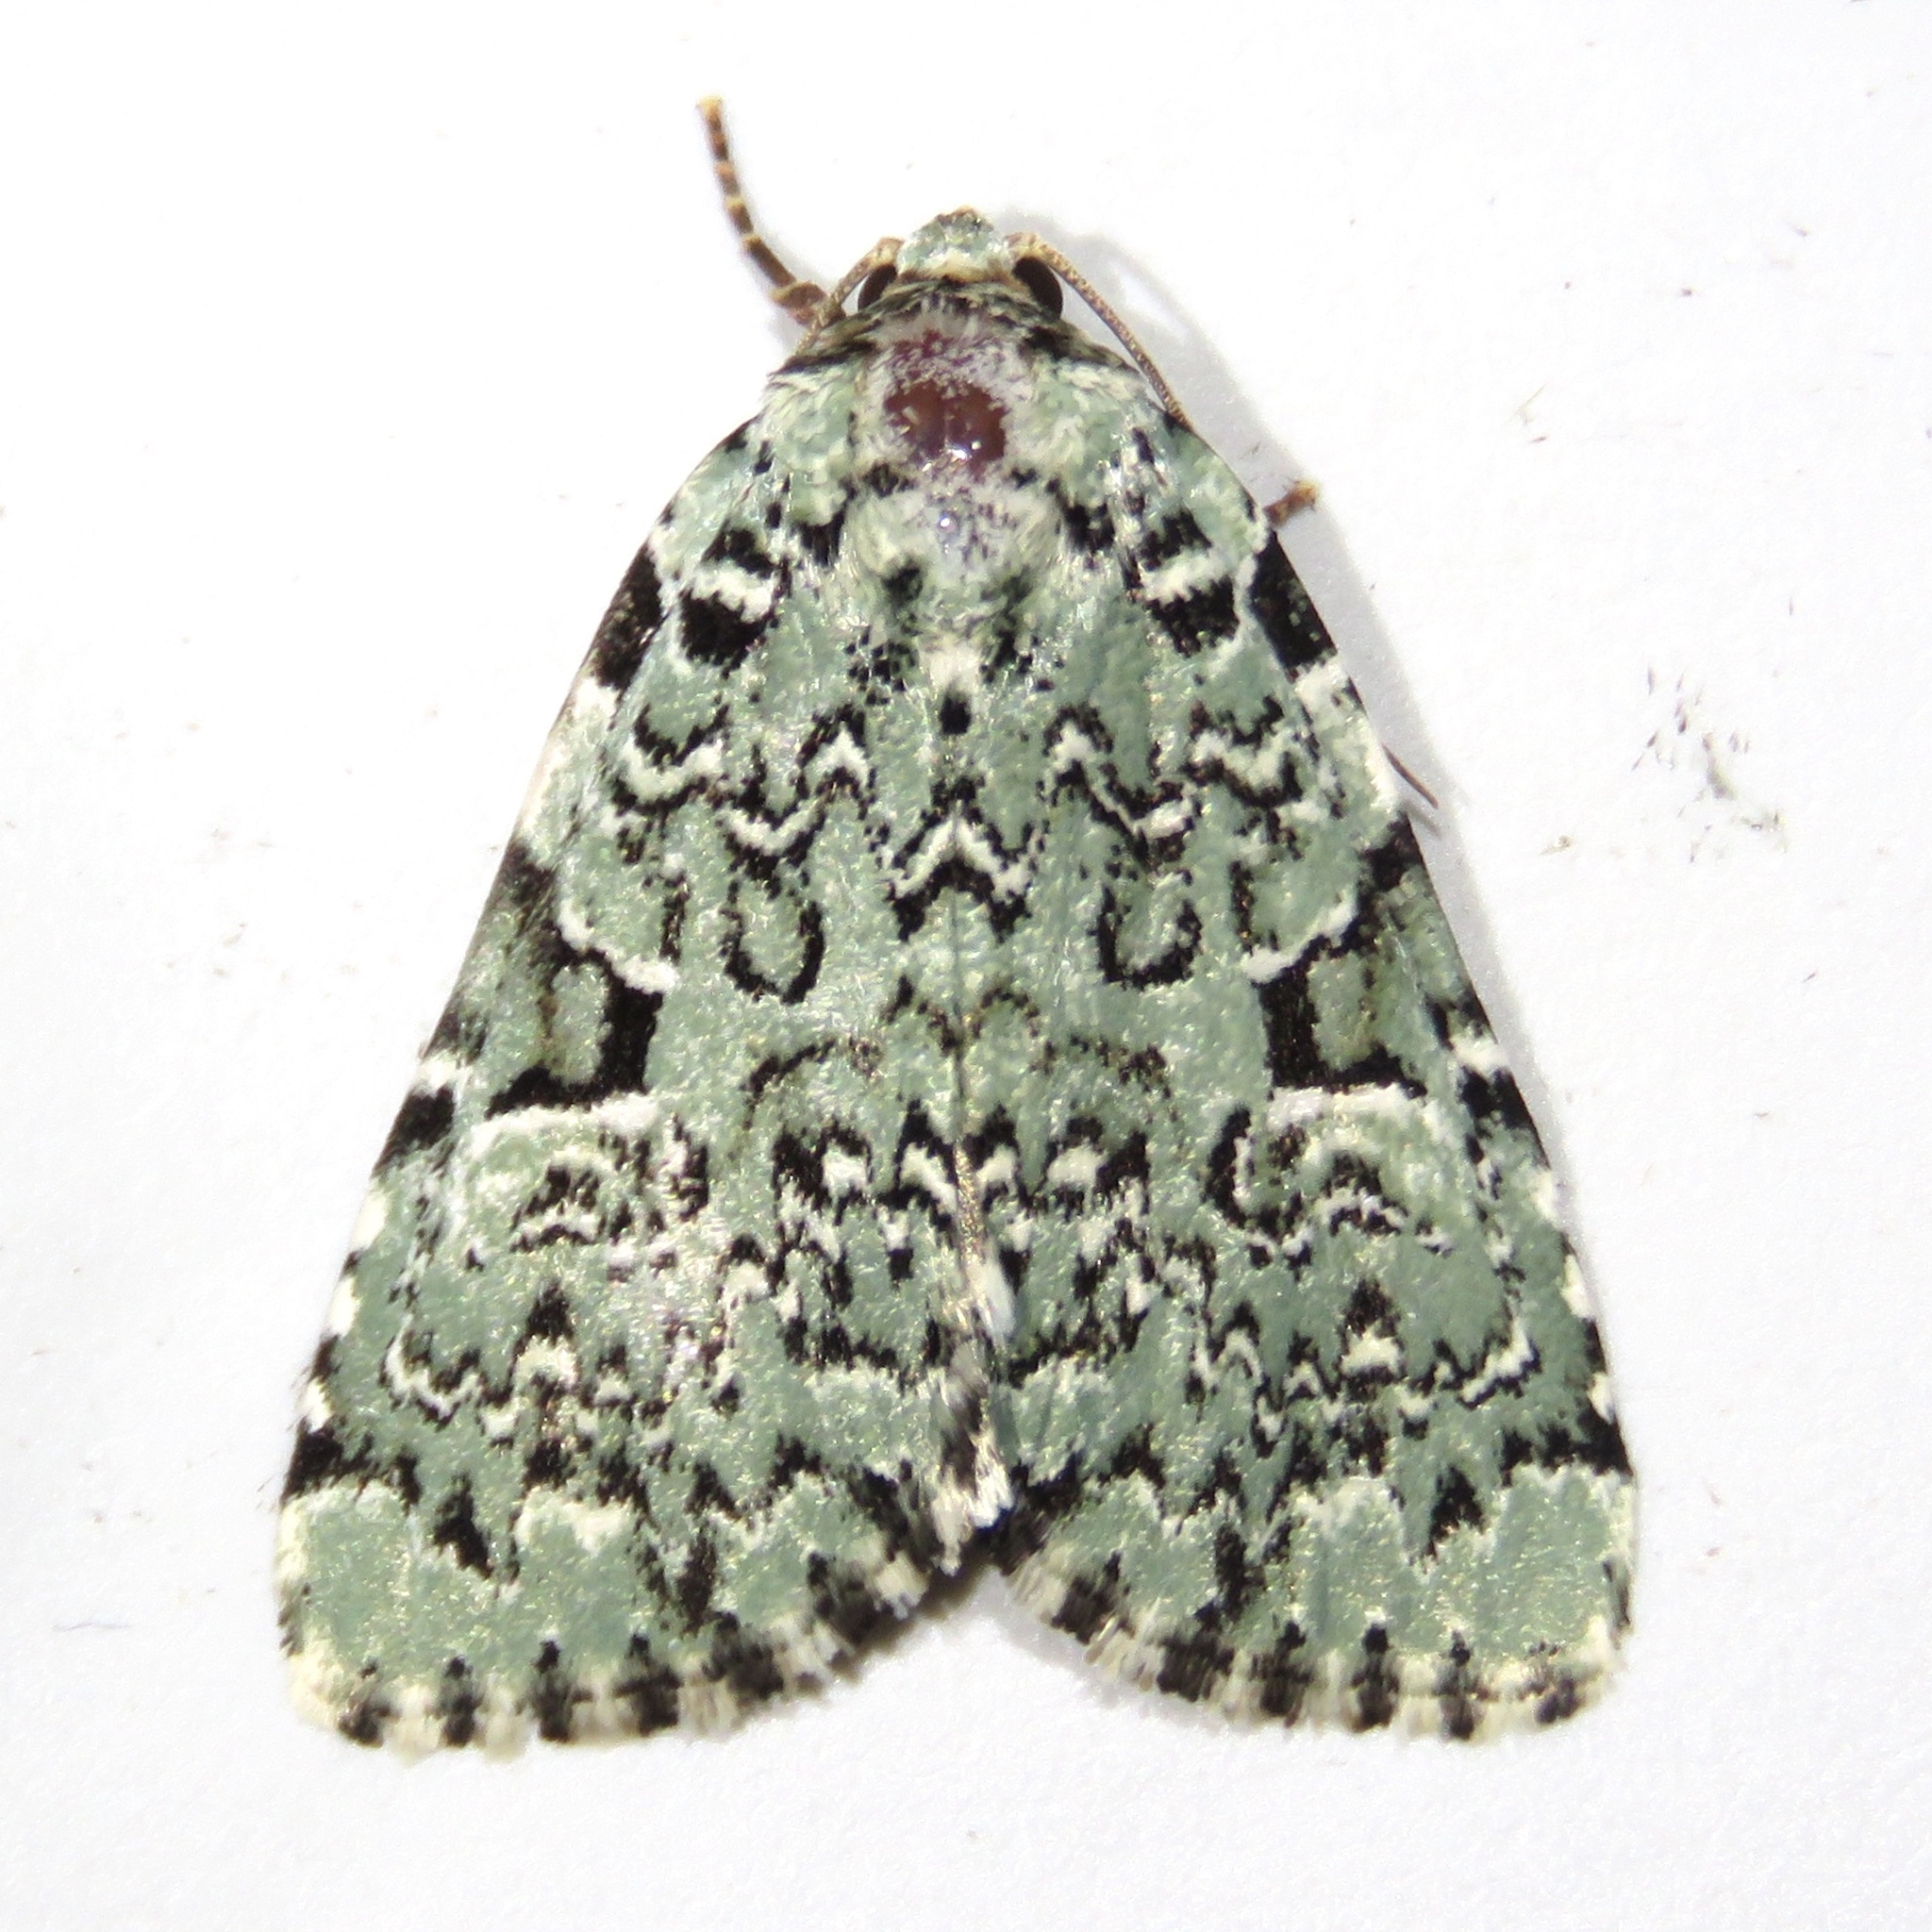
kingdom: Animalia
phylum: Arthropoda
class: Insecta
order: Lepidoptera
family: Noctuidae
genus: Leuconycta
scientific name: Leuconycta diphteroides
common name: Green leuconycta moth
